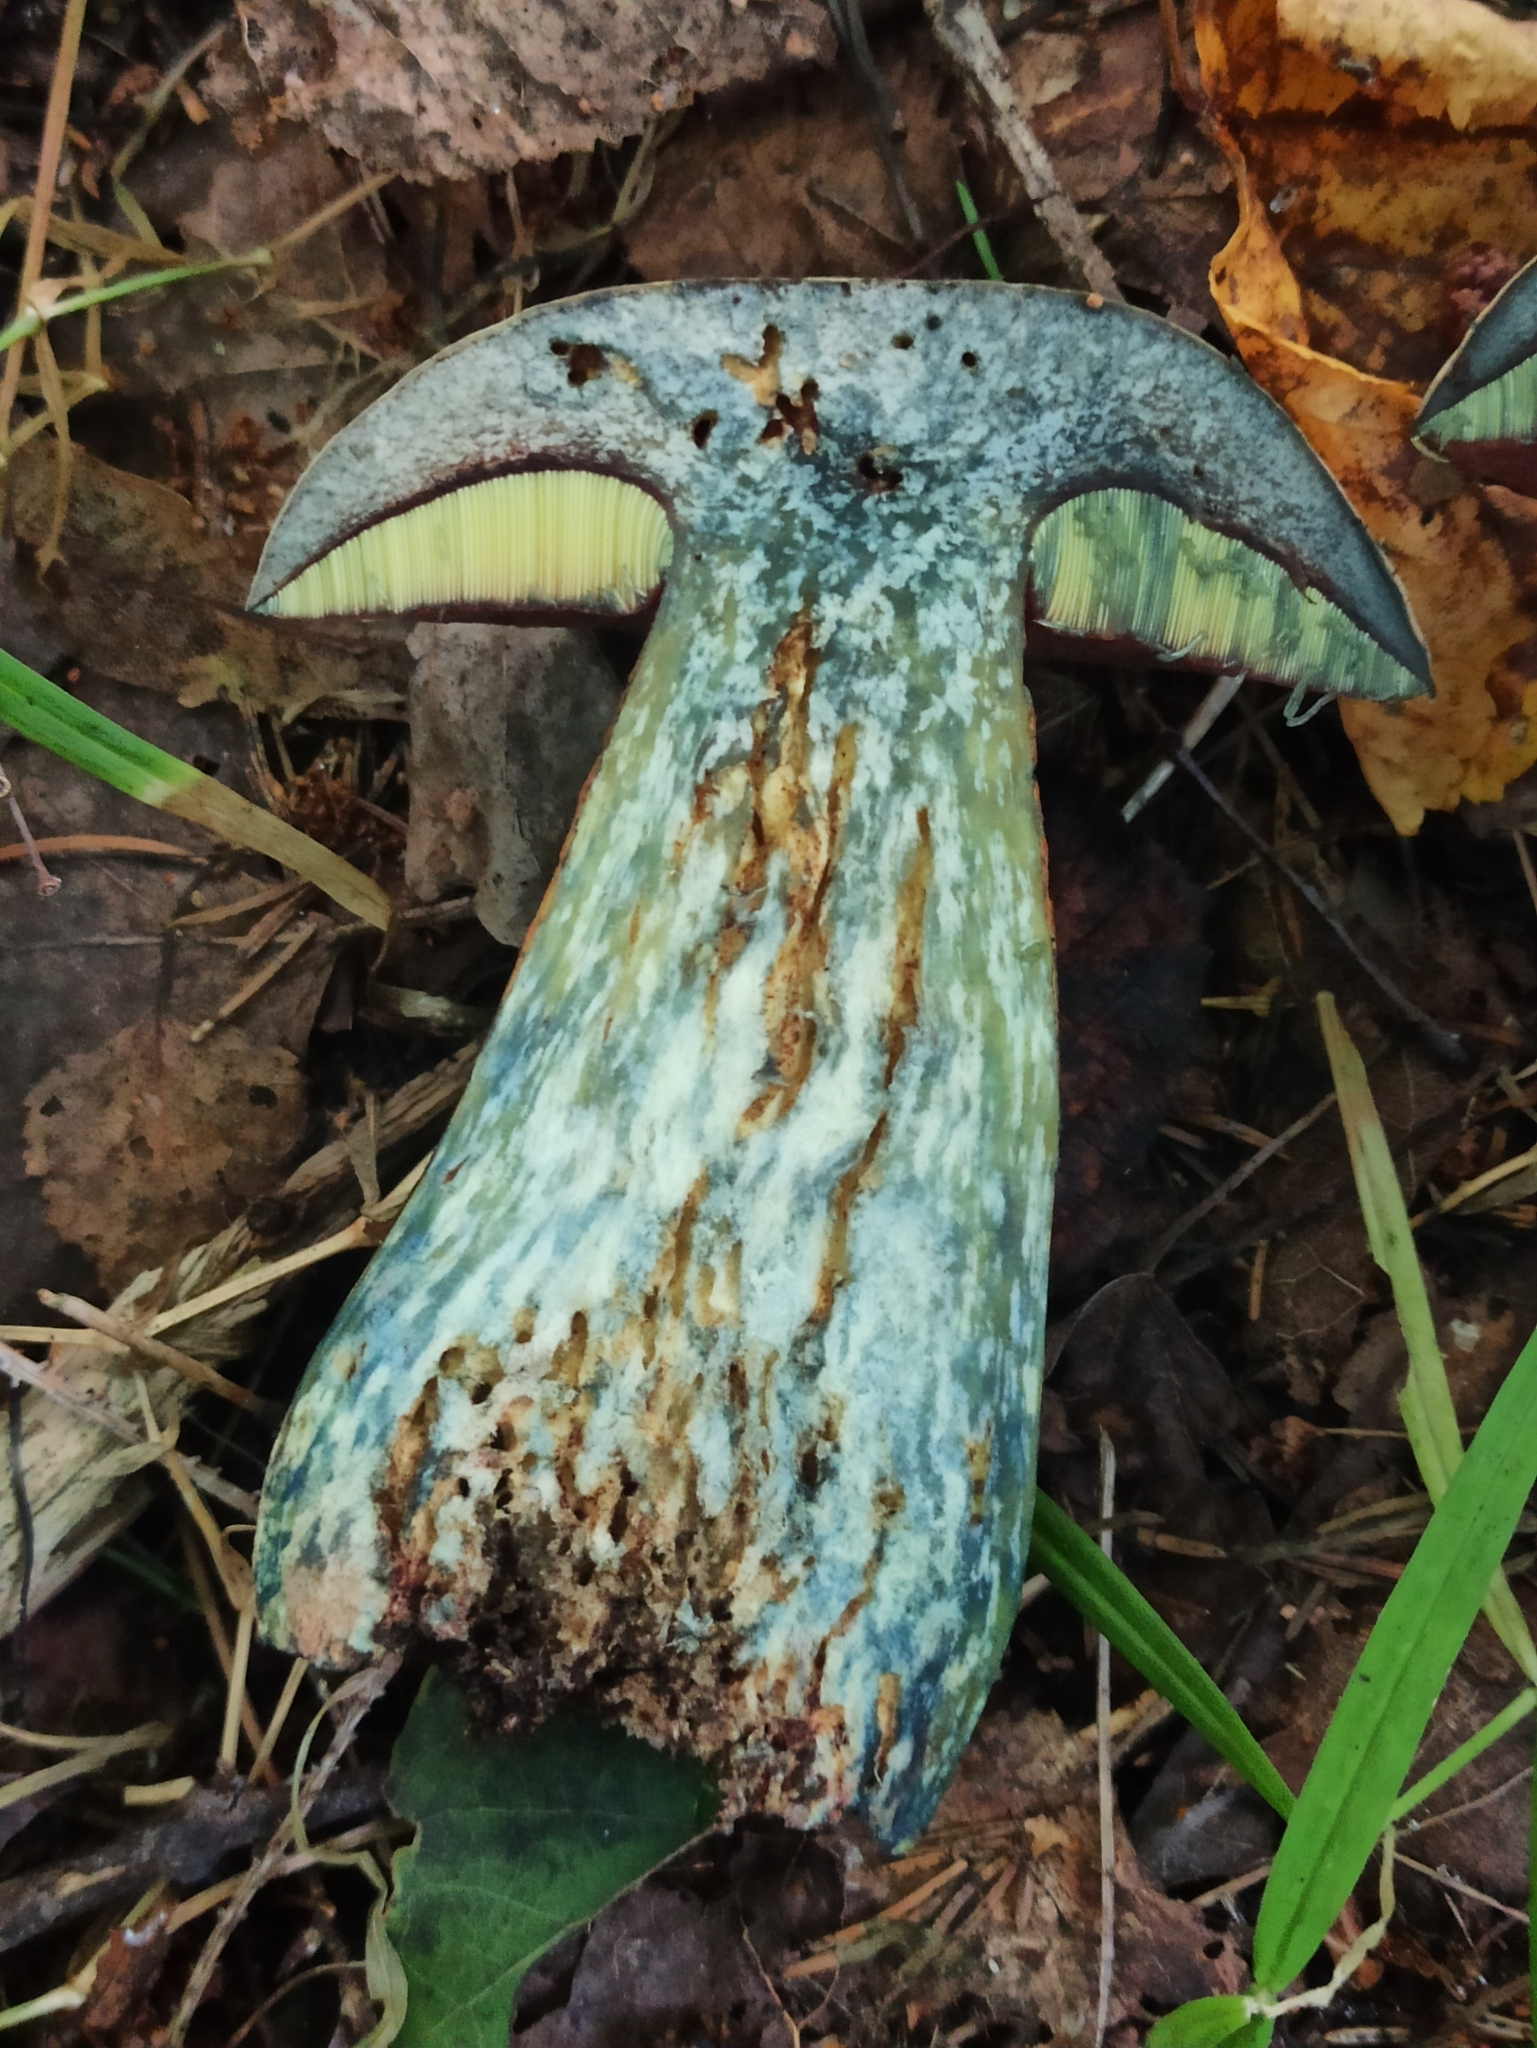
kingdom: Fungi
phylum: Basidiomycota
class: Agaricomycetes
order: Boletales
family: Boletaceae
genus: Suillellus
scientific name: Suillellus luridus
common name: Lurid bolete
